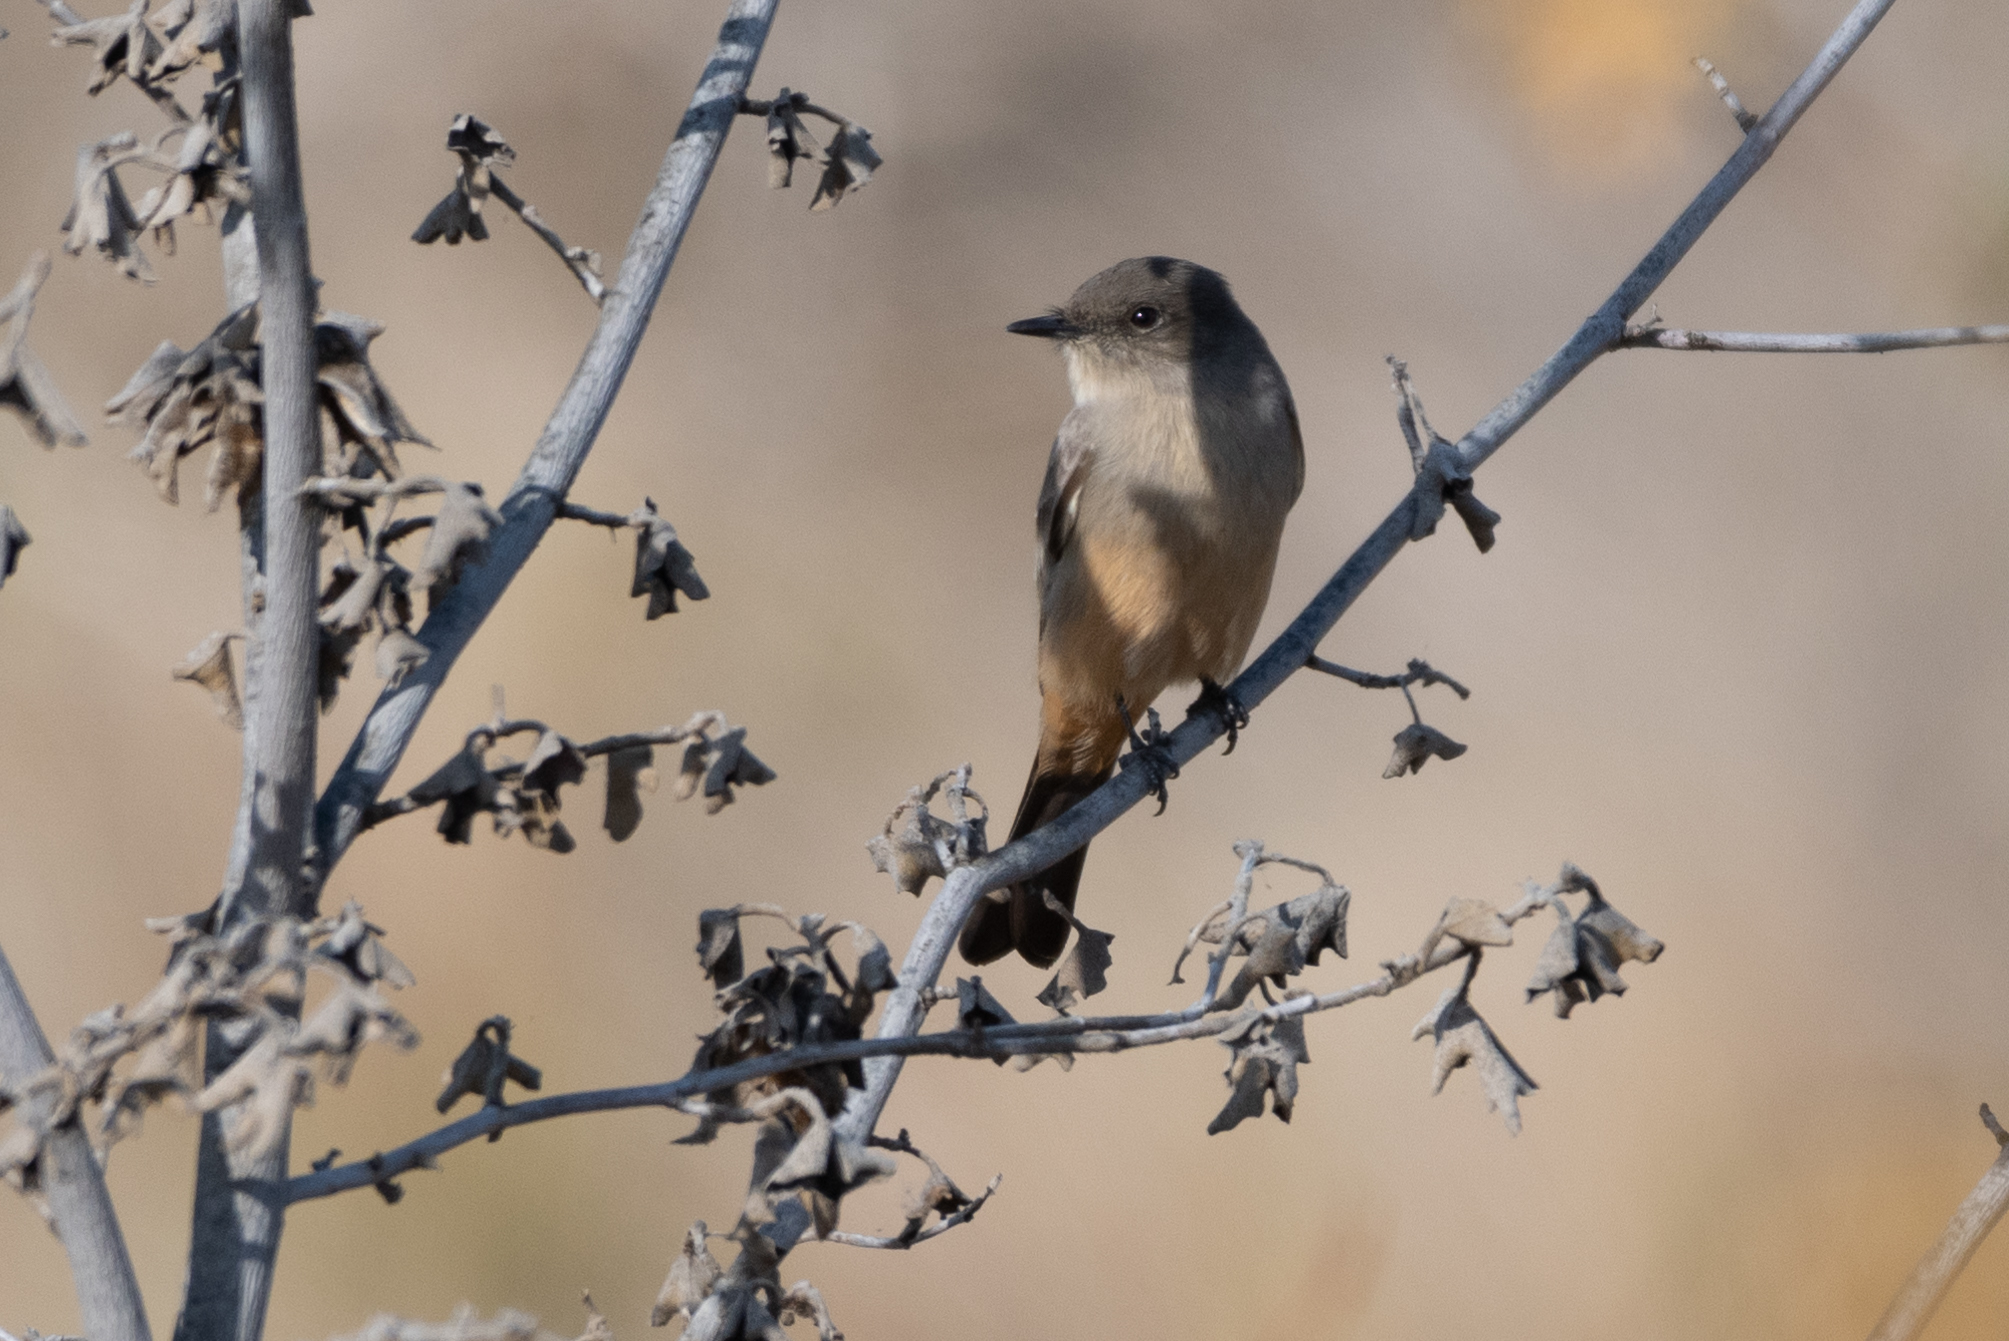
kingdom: Animalia
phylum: Chordata
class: Aves
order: Passeriformes
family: Tyrannidae
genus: Sayornis
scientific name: Sayornis saya
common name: Say's phoebe
